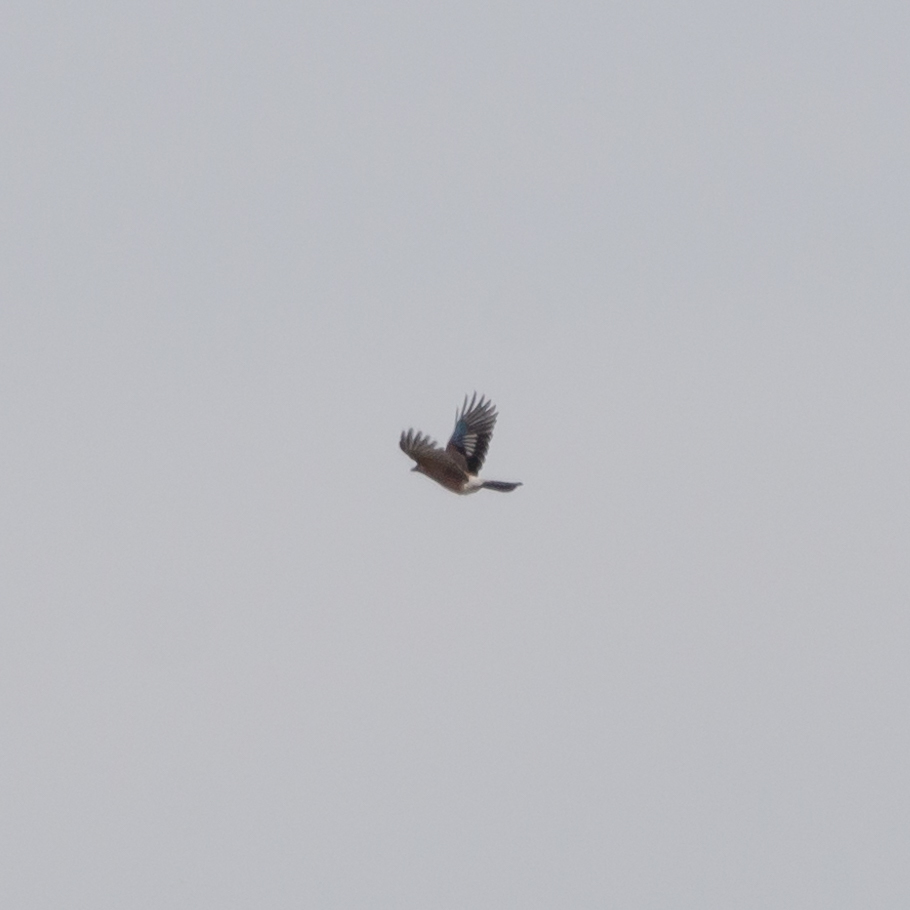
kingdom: Animalia
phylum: Chordata
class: Aves
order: Passeriformes
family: Corvidae
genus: Garrulus
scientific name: Garrulus glandarius
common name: Eurasian jay
